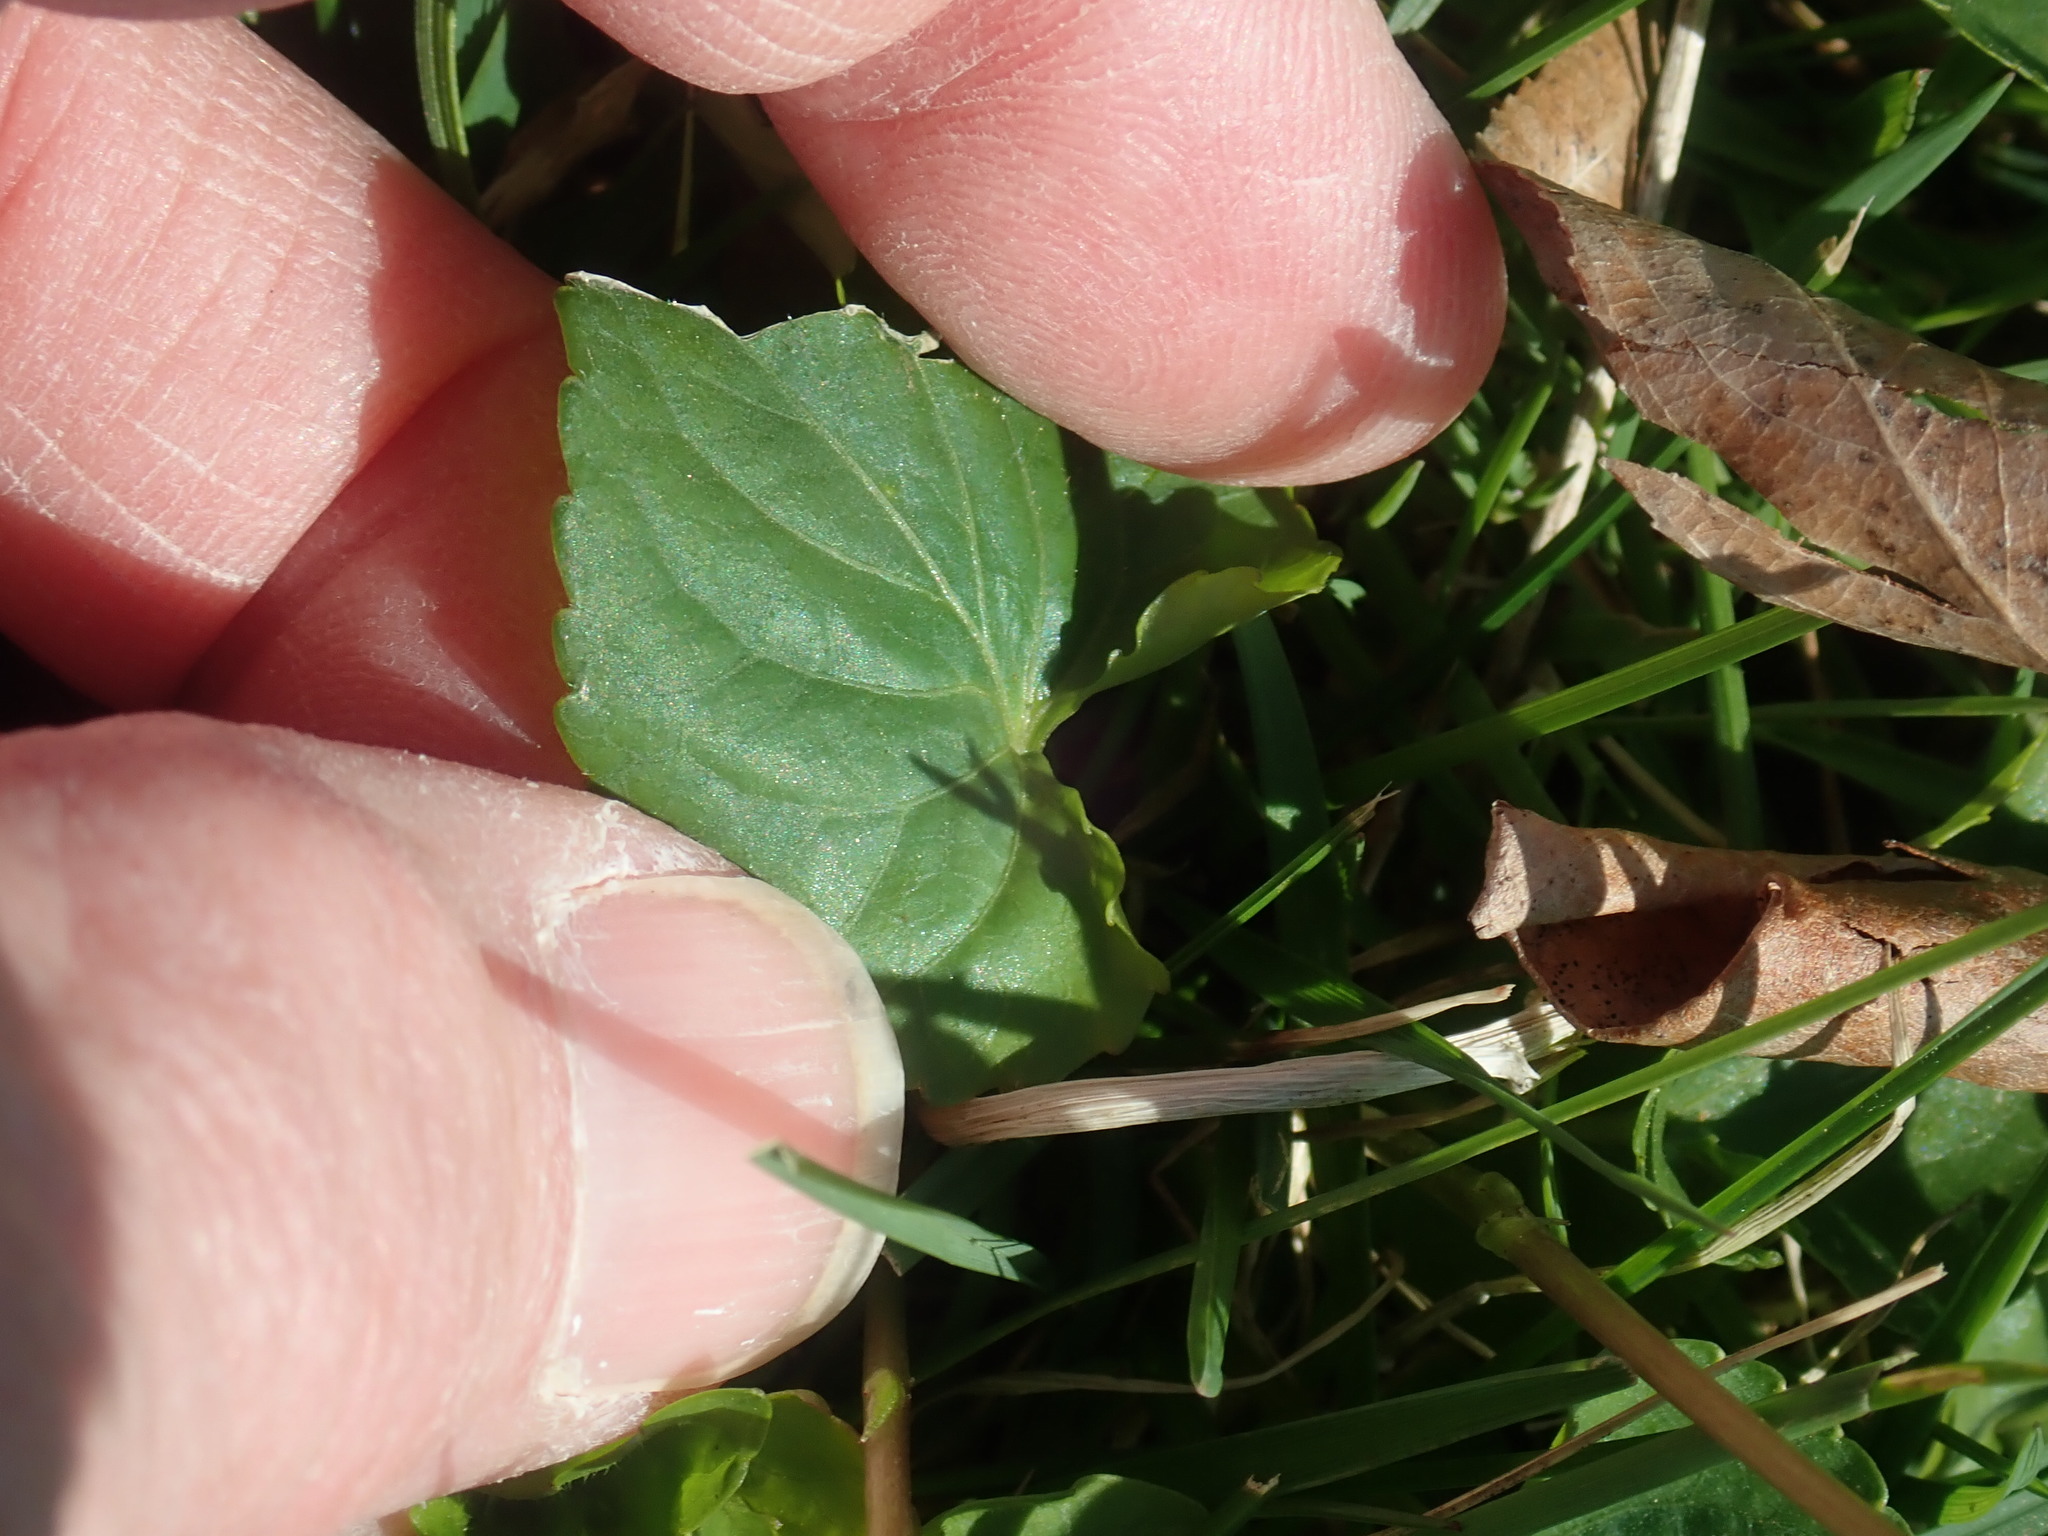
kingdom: Plantae
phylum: Tracheophyta
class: Magnoliopsida
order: Malpighiales
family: Violaceae
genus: Viola
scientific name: Viola sororia
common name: Dooryard violet
